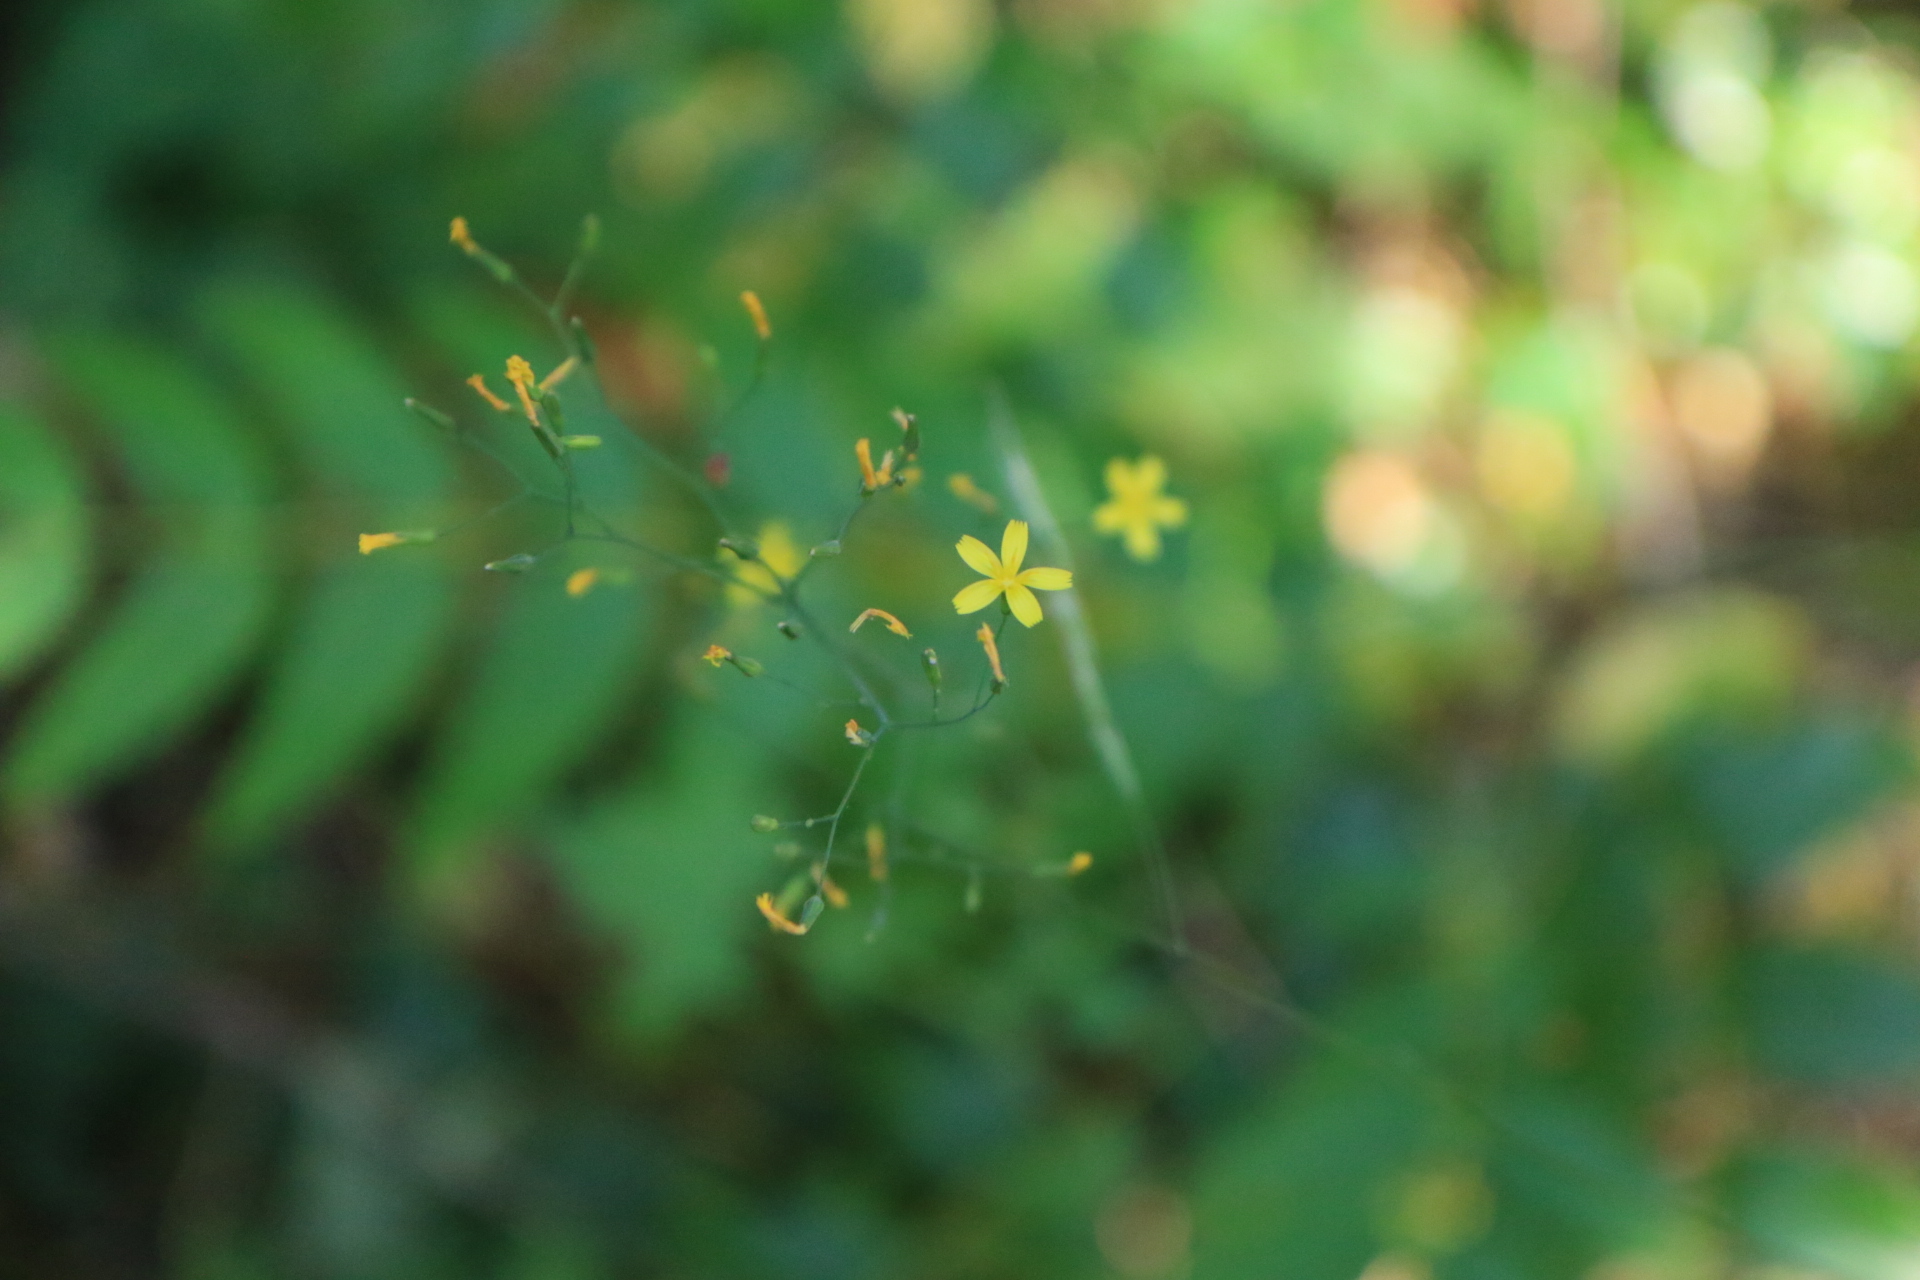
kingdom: Plantae
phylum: Tracheophyta
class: Magnoliopsida
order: Asterales
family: Asteraceae
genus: Mycelis
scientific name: Mycelis muralis
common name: Wall lettuce
